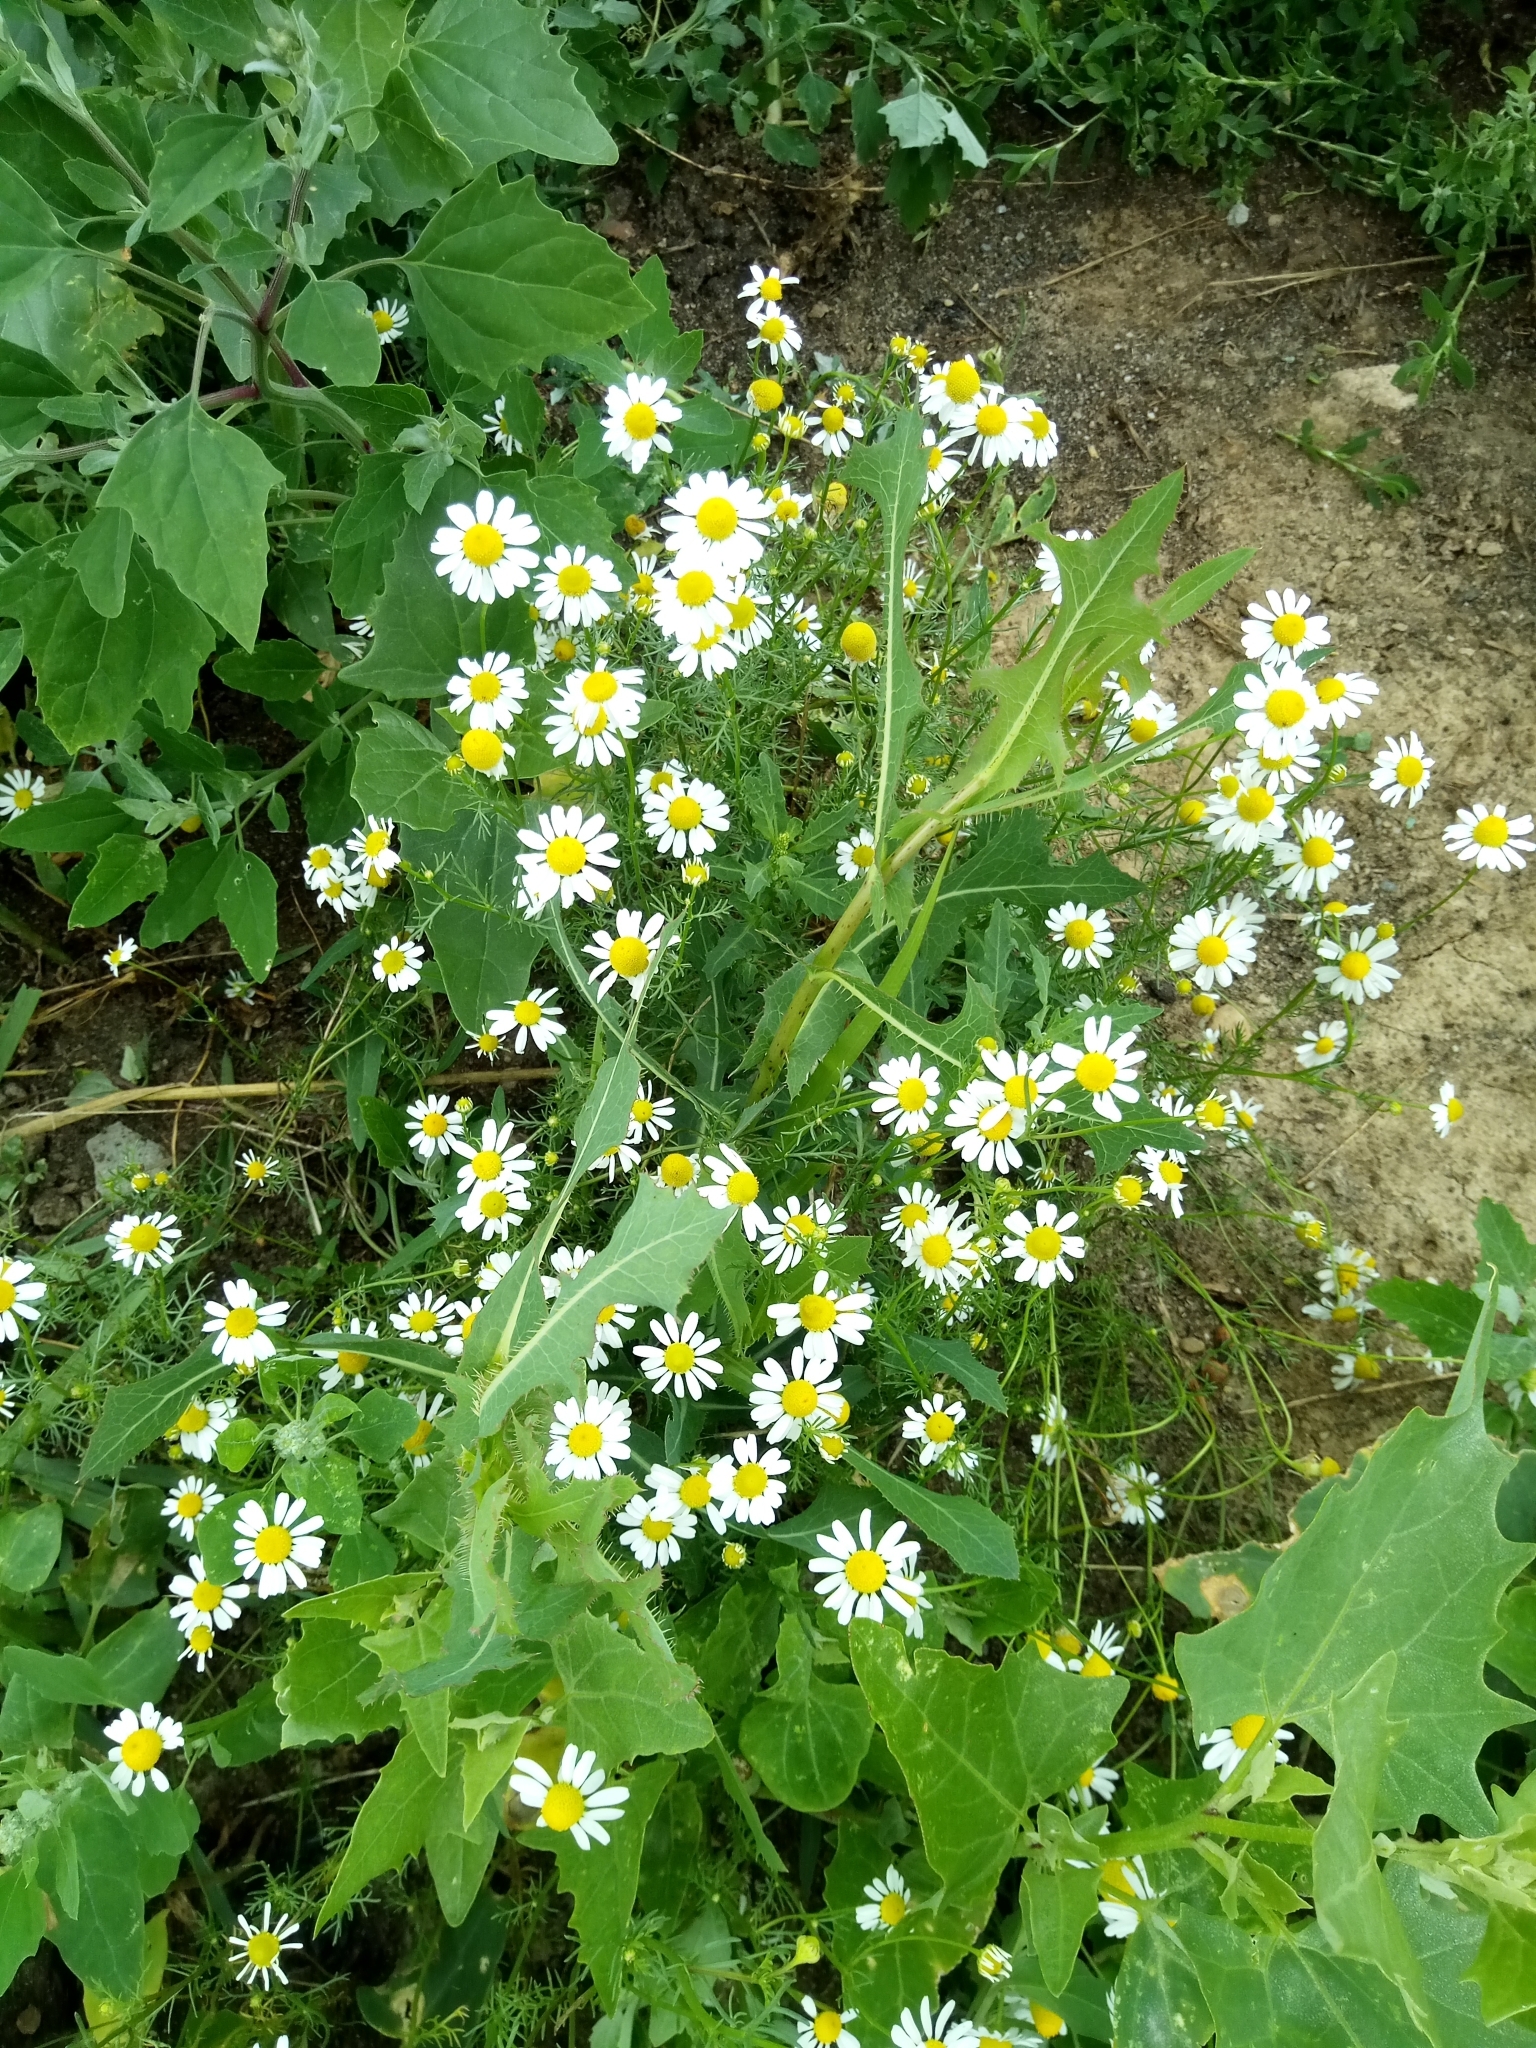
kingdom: Plantae
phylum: Tracheophyta
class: Magnoliopsida
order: Asterales
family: Asteraceae
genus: Matricaria
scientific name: Matricaria chamomilla
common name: Scented mayweed
